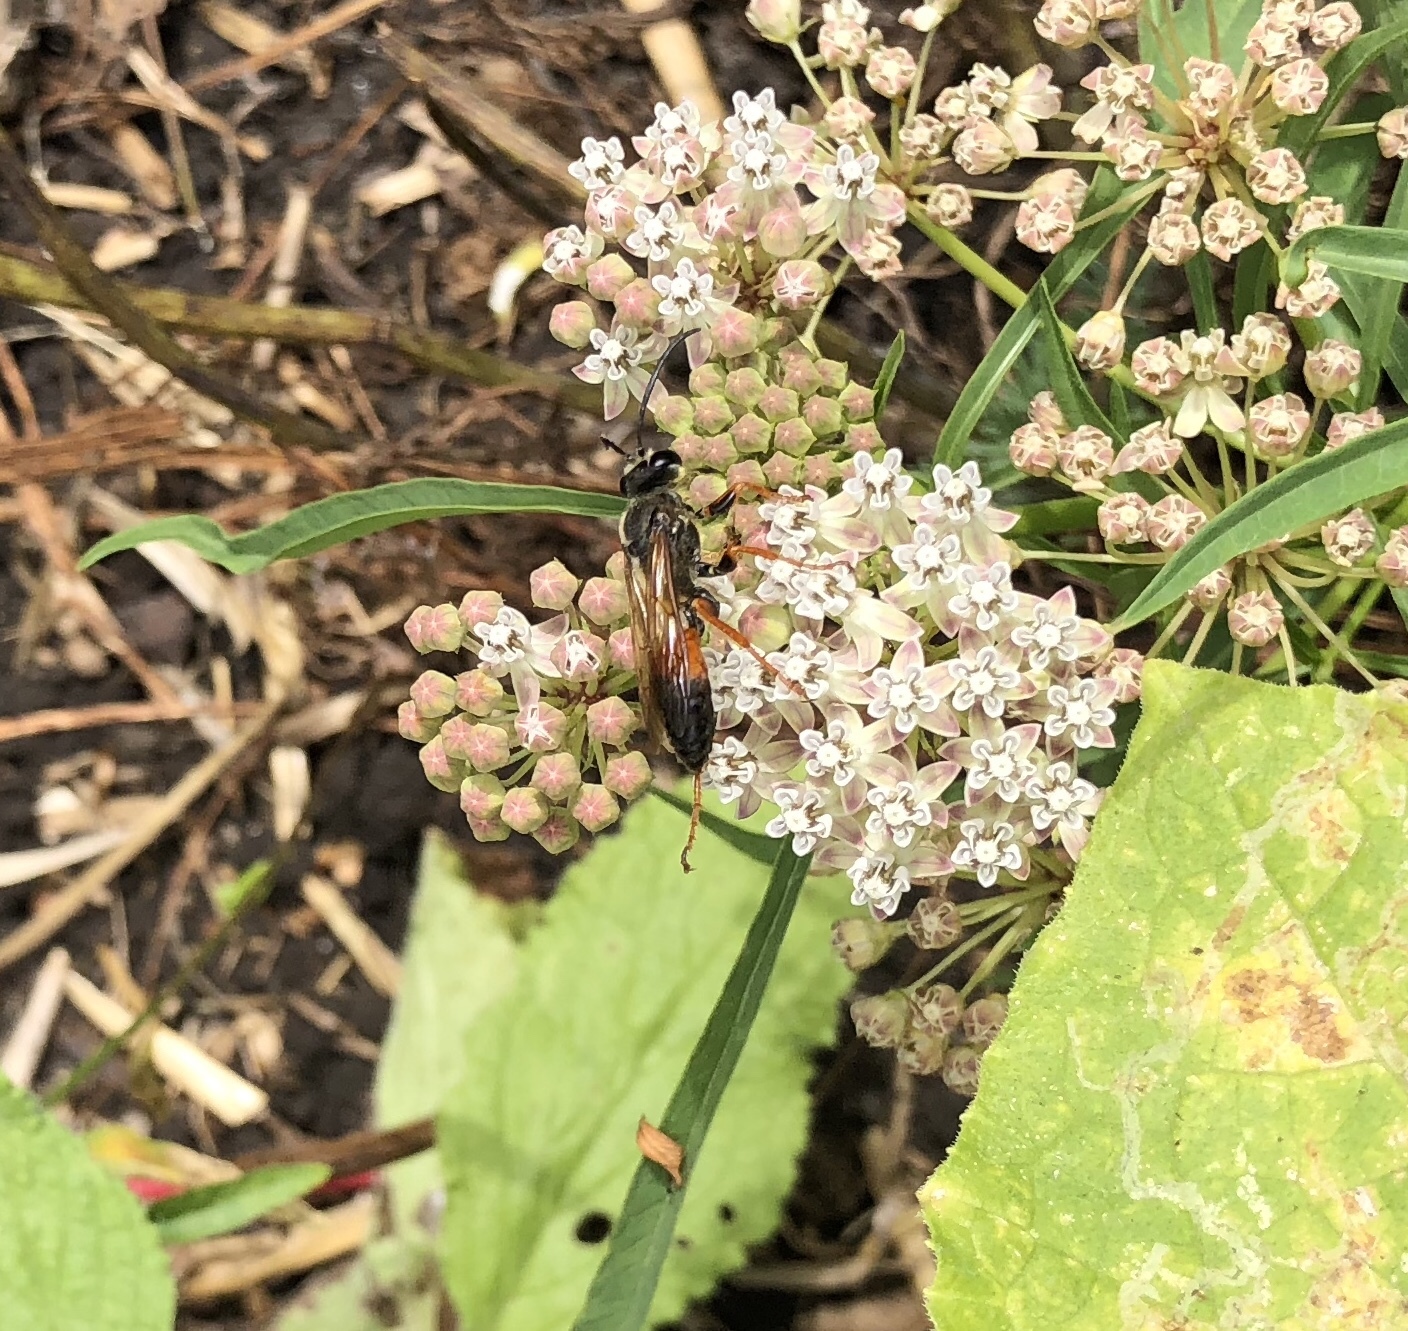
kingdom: Animalia
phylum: Arthropoda
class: Insecta
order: Hymenoptera
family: Sphecidae
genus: Sphex
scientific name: Sphex ichneumoneus
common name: Great golden digger wasp
